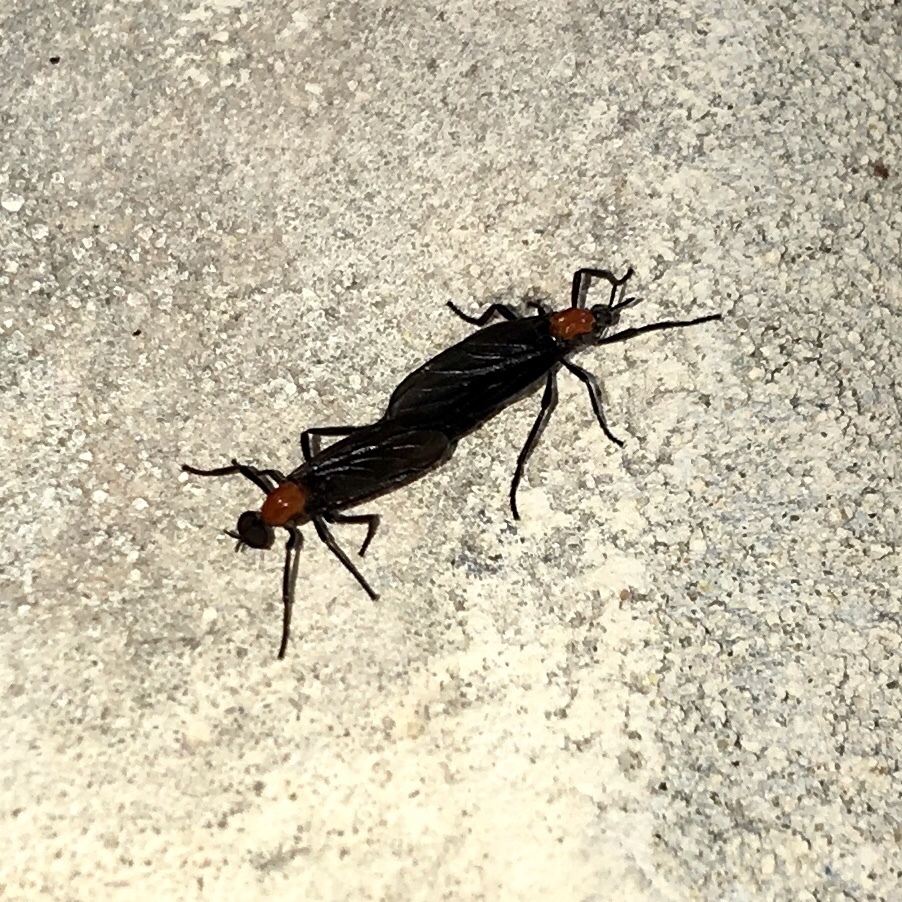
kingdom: Animalia
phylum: Arthropoda
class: Insecta
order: Diptera
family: Bibionidae
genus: Plecia
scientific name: Plecia nearctica
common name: March fly
